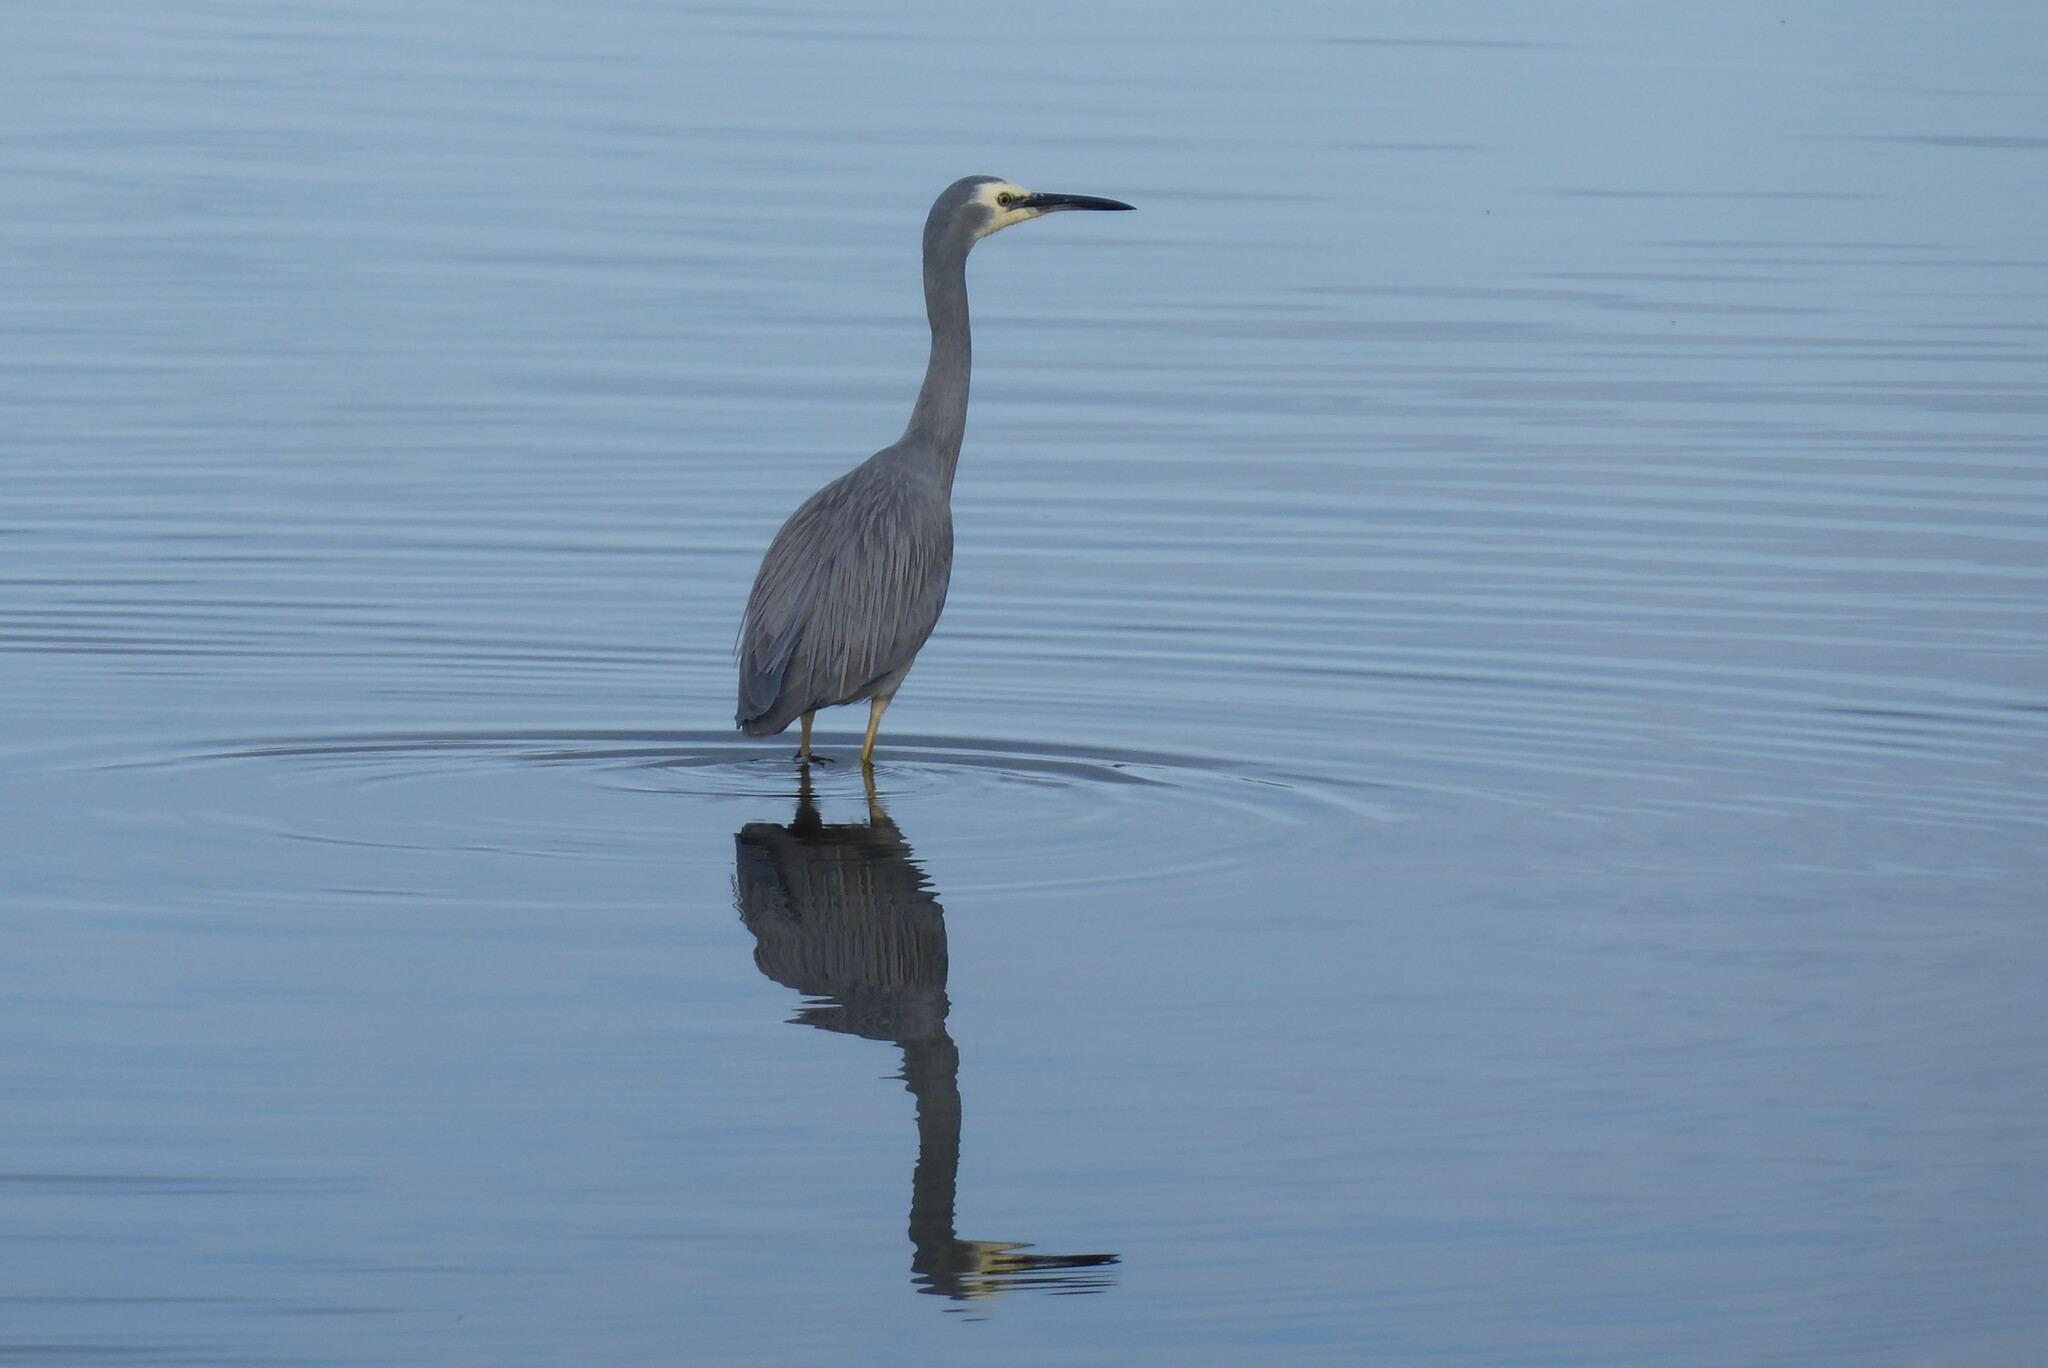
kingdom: Animalia
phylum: Chordata
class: Aves
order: Pelecaniformes
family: Ardeidae
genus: Egretta
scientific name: Egretta novaehollandiae
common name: White-faced heron
